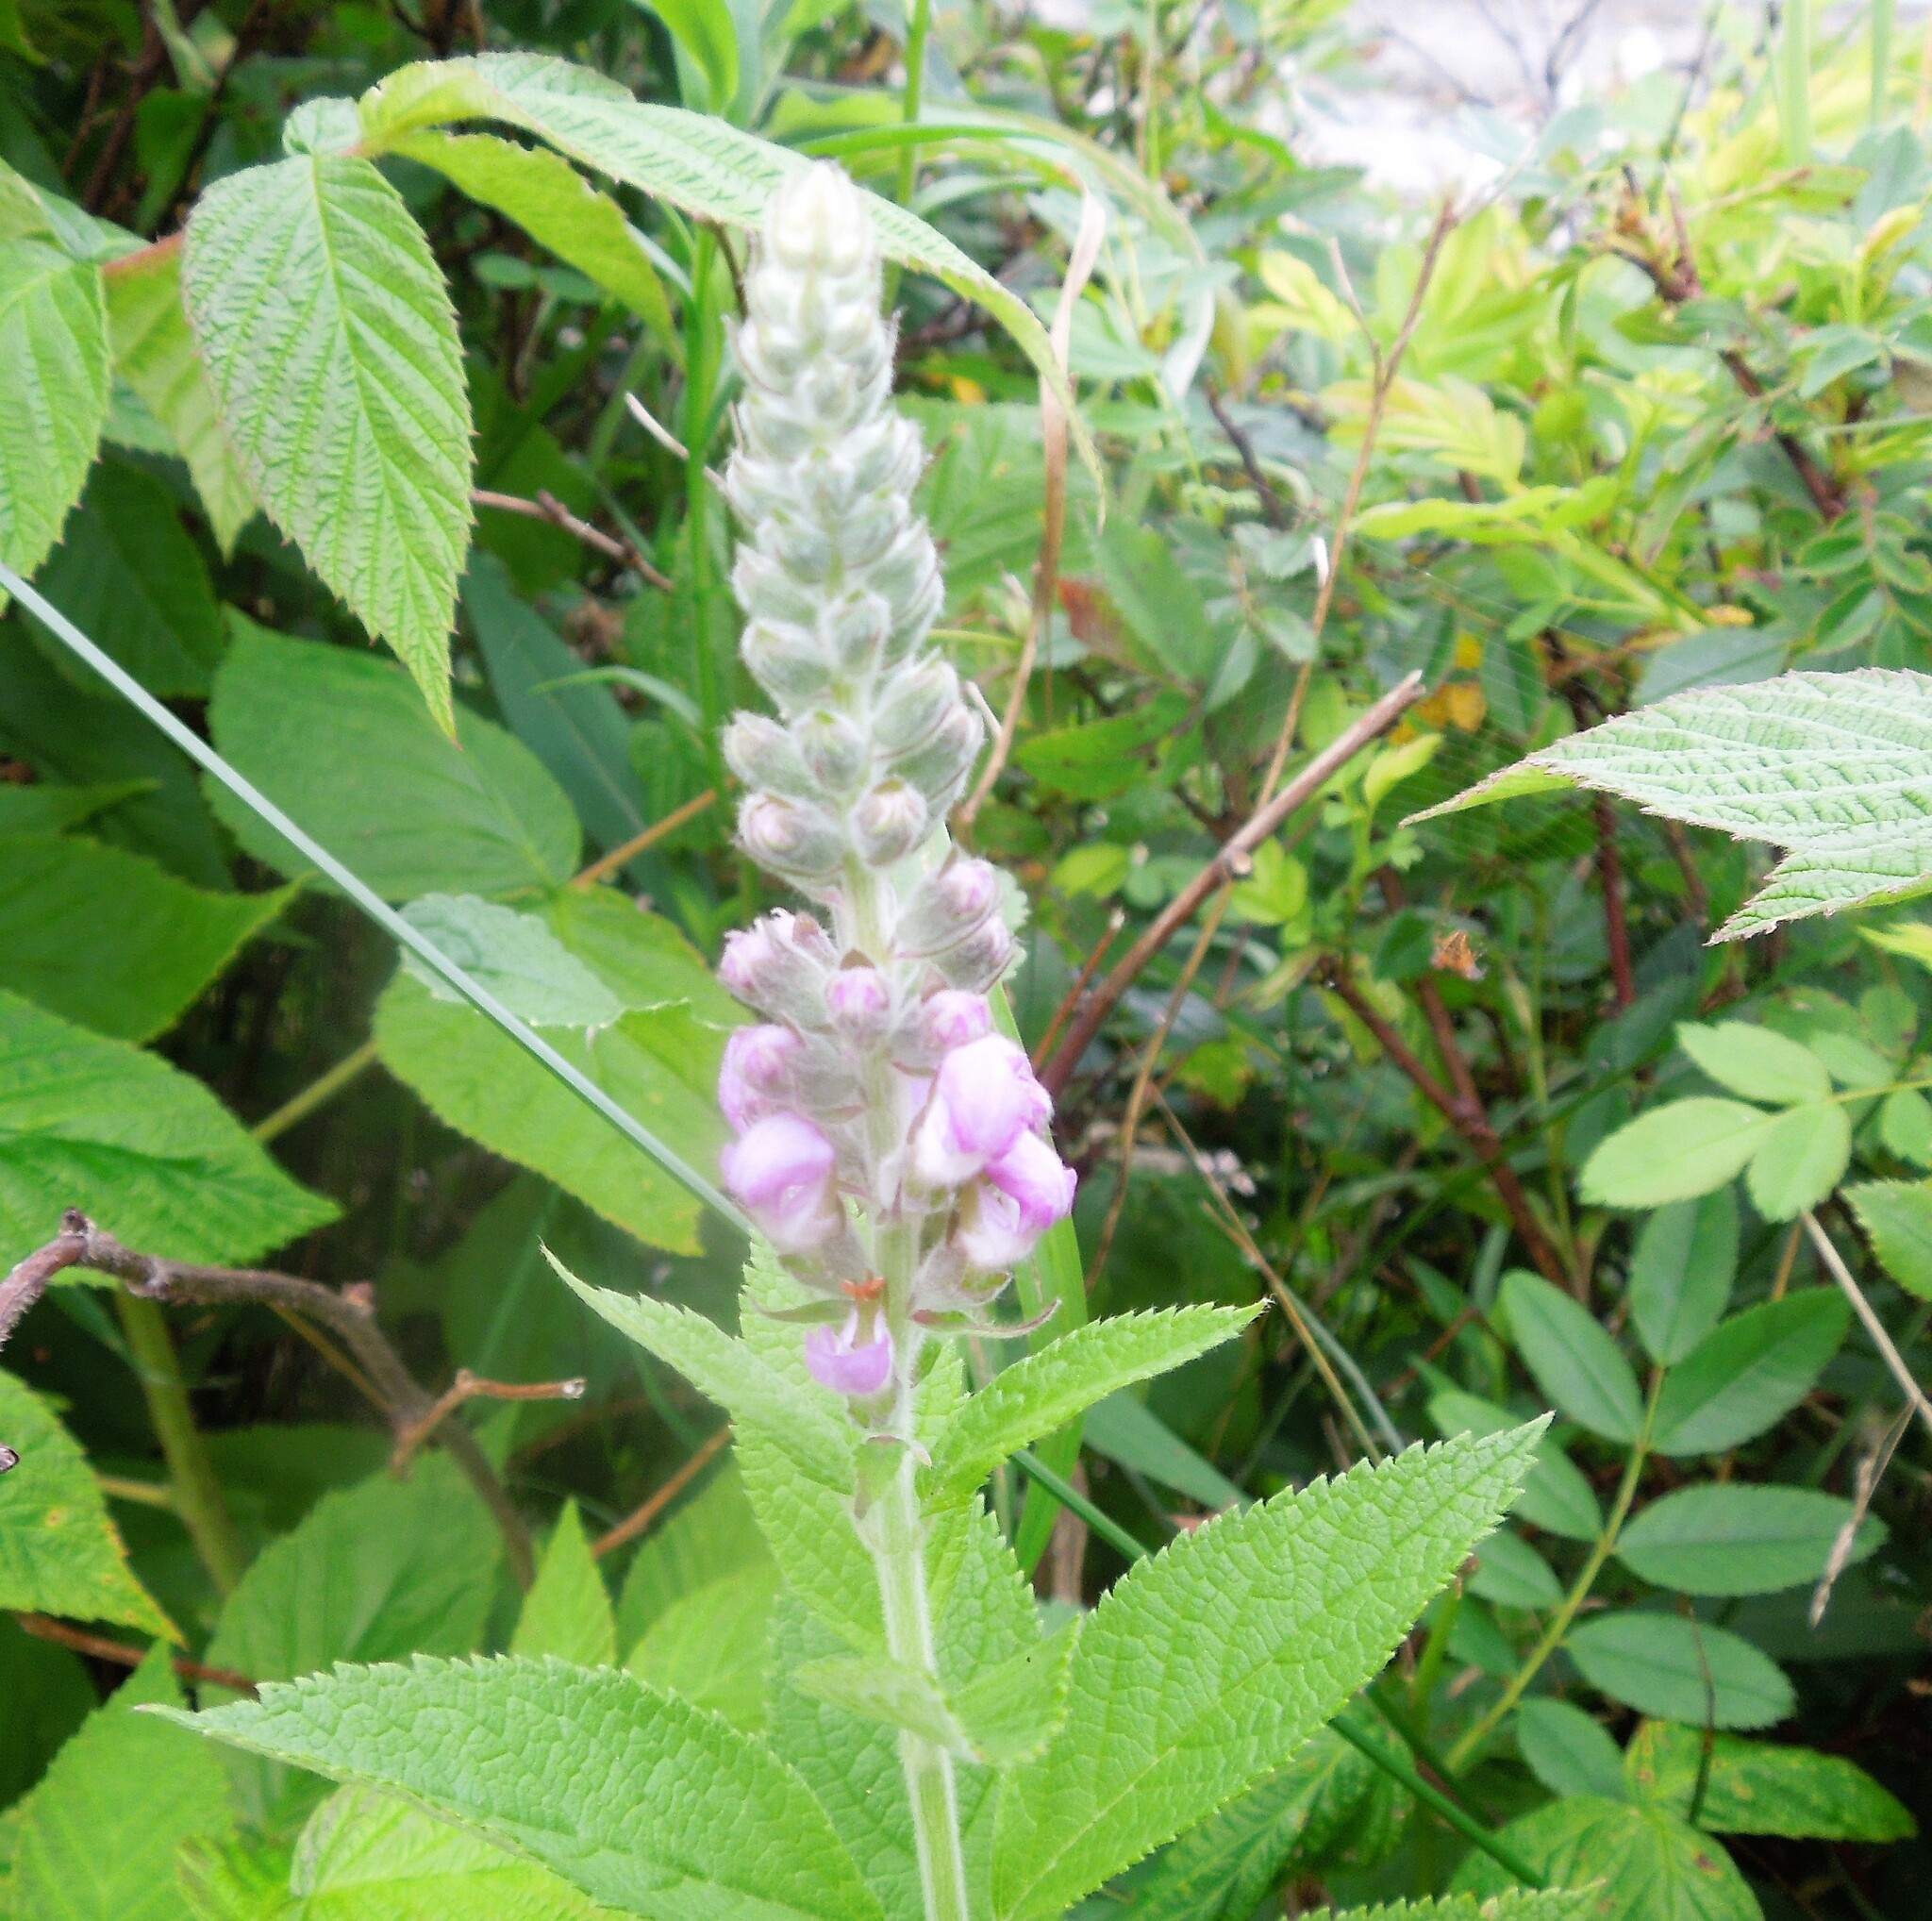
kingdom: Plantae
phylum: Tracheophyta
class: Magnoliopsida
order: Lamiales
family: Lamiaceae
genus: Teucrium
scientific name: Teucrium canadense
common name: American germander
